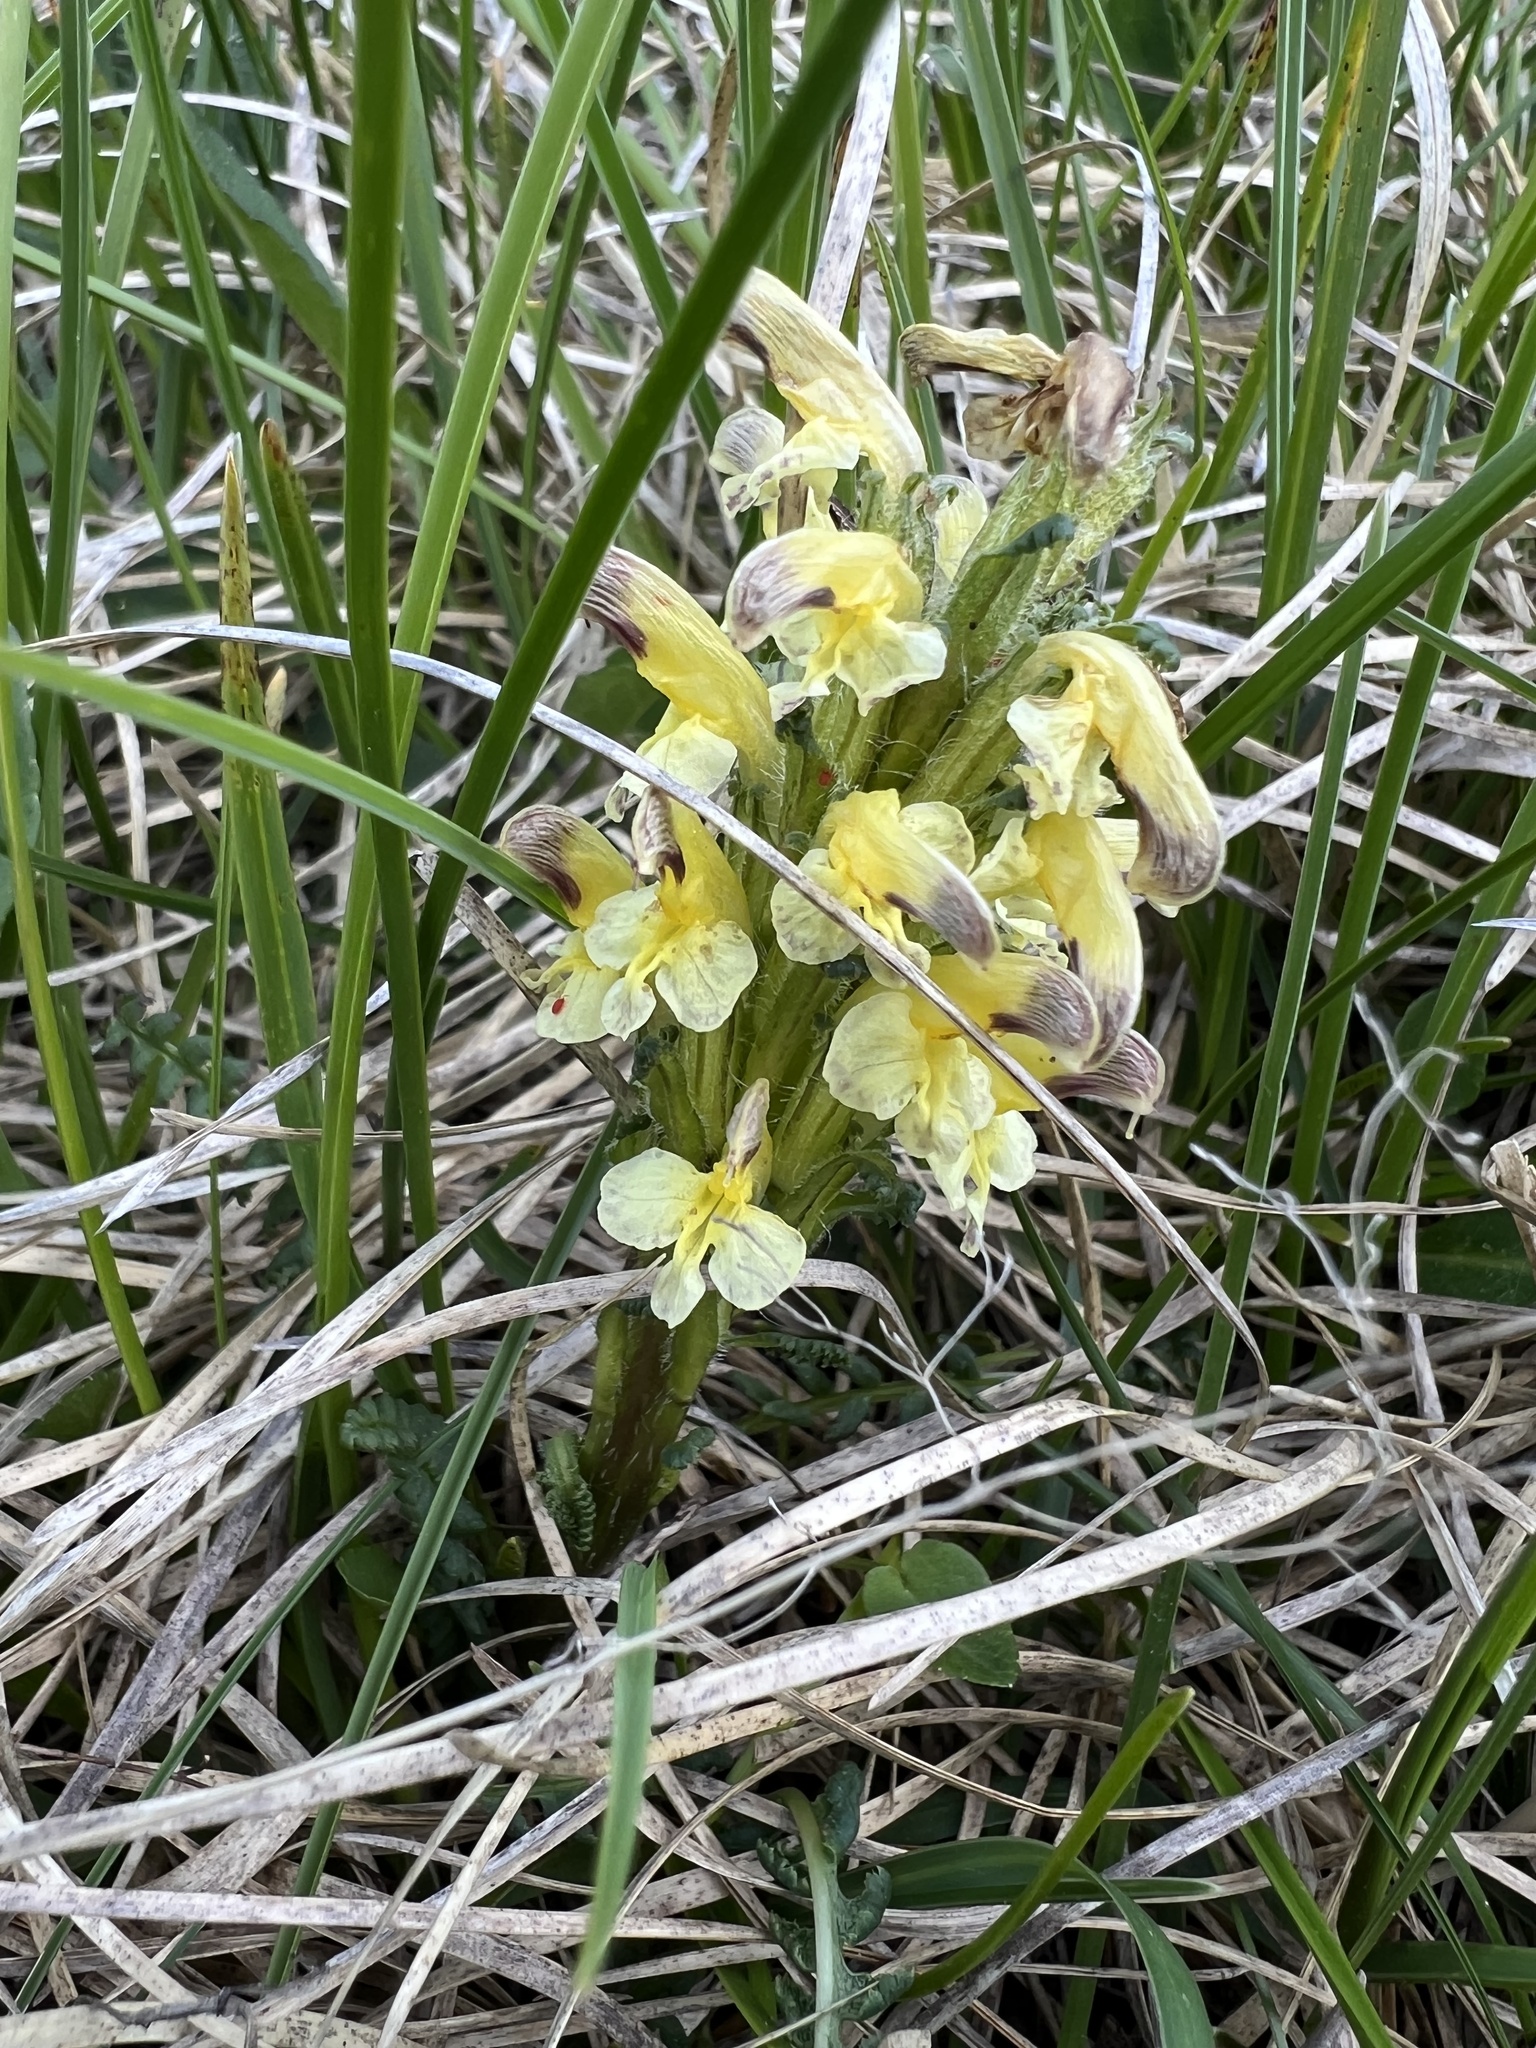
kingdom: Plantae
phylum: Tracheophyta
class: Magnoliopsida
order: Lamiales
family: Orobanchaceae
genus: Pedicularis
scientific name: Pedicularis oederi
